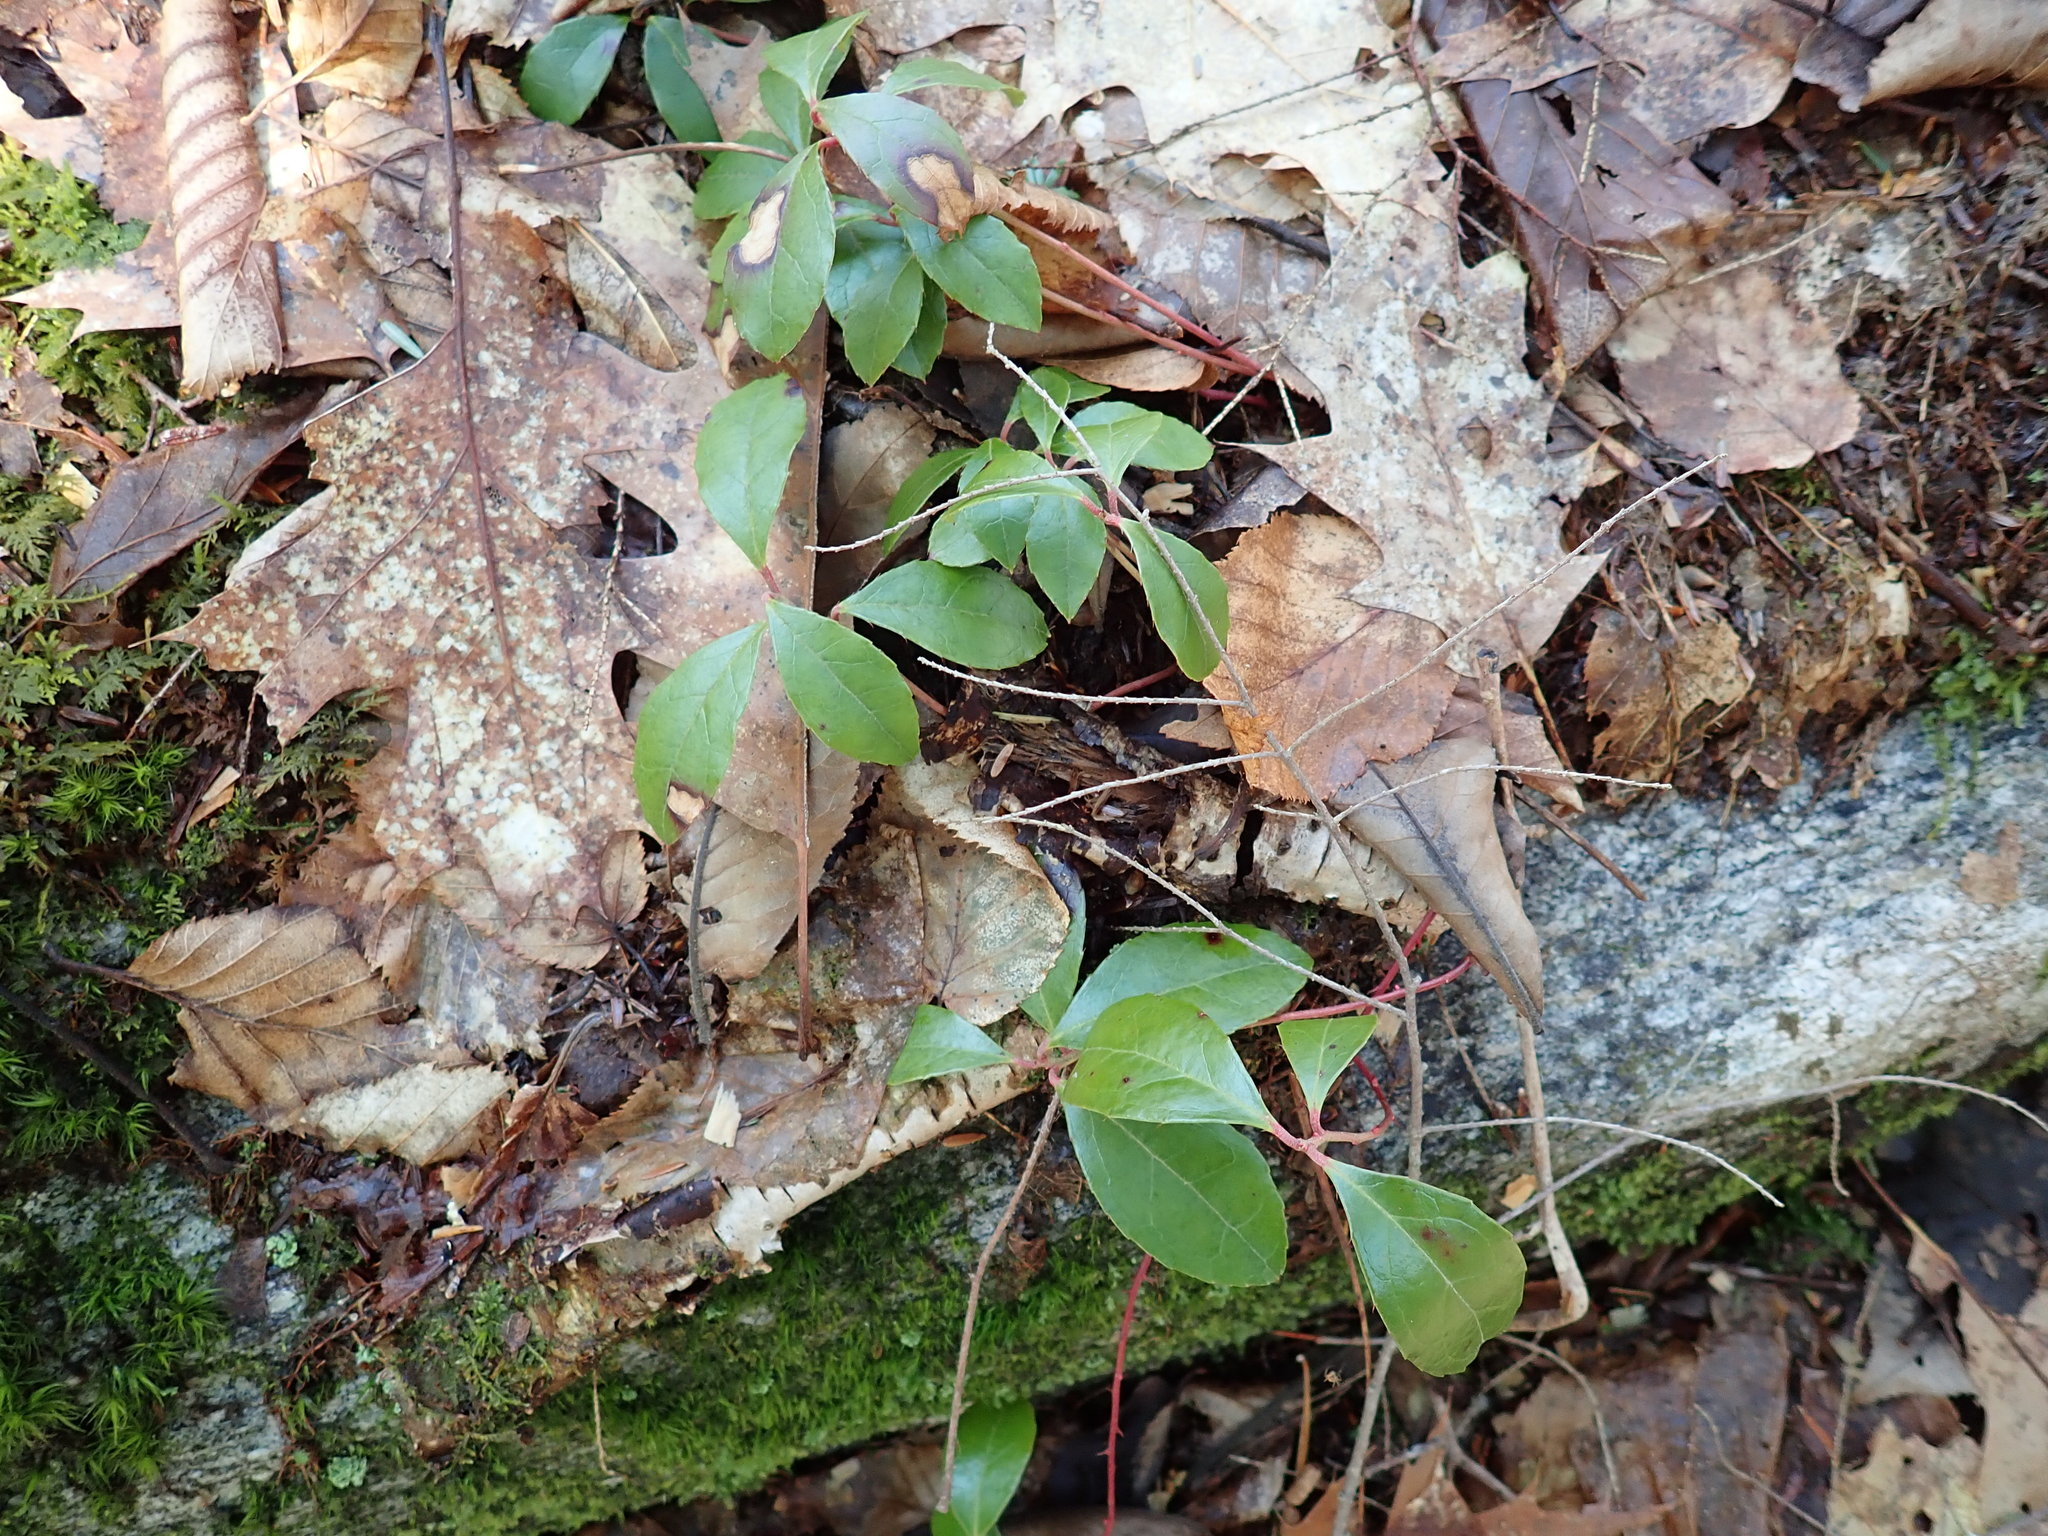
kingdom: Plantae
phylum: Tracheophyta
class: Magnoliopsida
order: Ericales
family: Ericaceae
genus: Gaultheria
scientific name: Gaultheria procumbens
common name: Checkerberry
